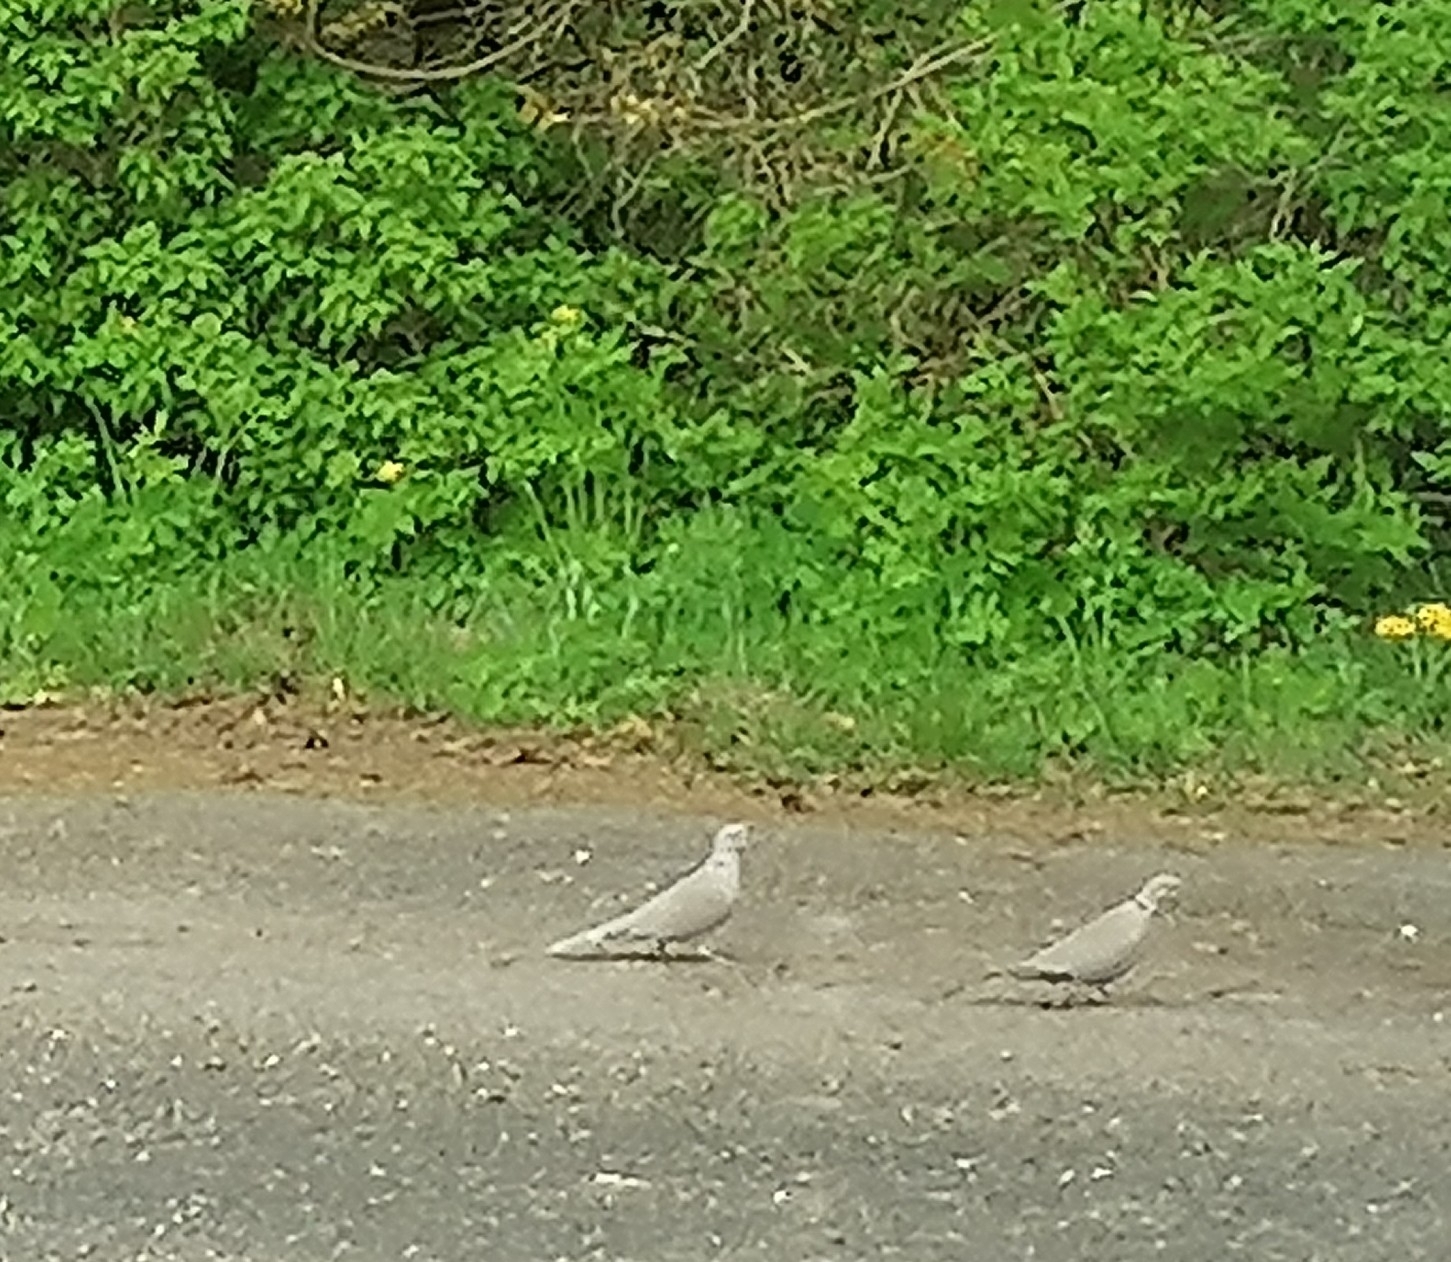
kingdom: Animalia
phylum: Chordata
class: Aves
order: Columbiformes
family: Columbidae
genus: Streptopelia
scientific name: Streptopelia decaocto
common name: Eurasian collared dove
